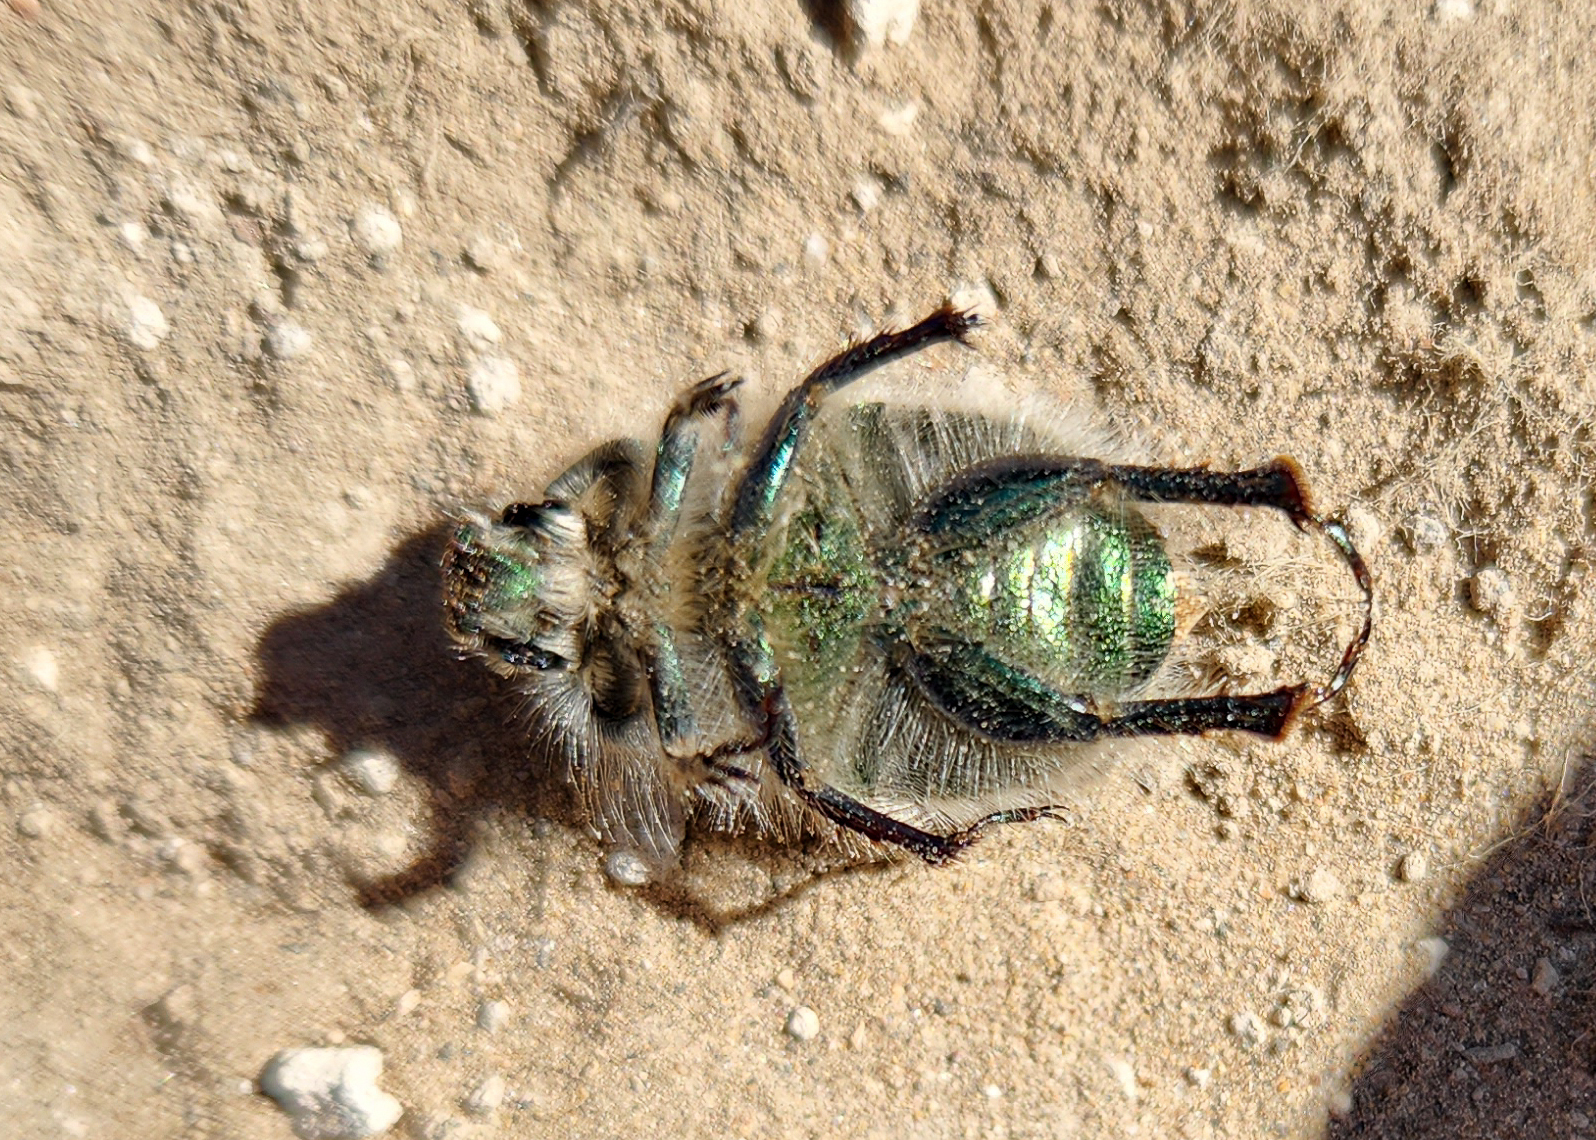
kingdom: Animalia
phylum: Arthropoda
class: Insecta
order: Coleoptera
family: Scarabaeidae
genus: Paracotalpa
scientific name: Paracotalpa granicollis
